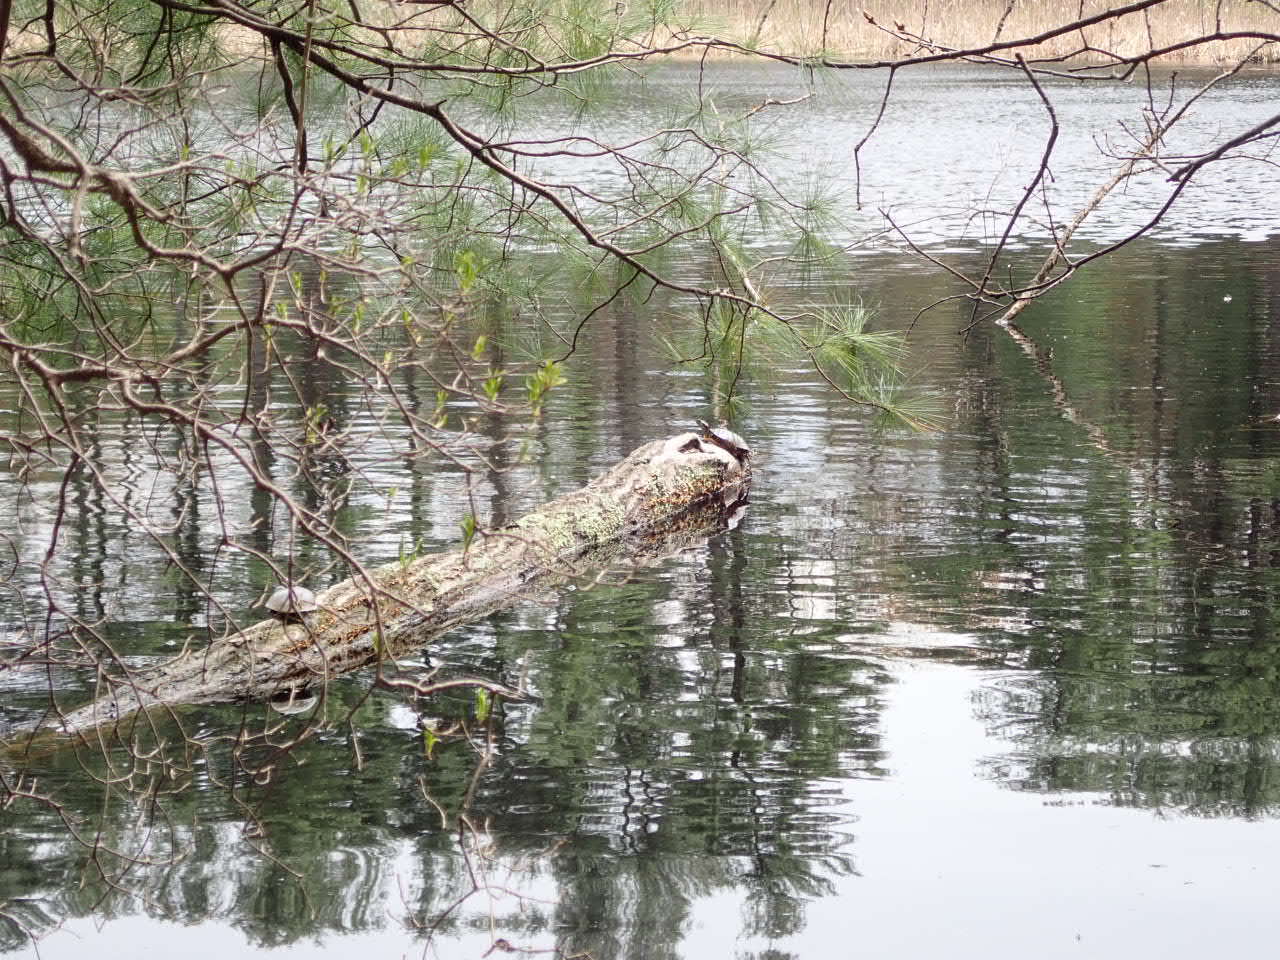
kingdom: Animalia
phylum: Chordata
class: Testudines
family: Emydidae
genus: Chrysemys
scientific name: Chrysemys picta
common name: Painted turtle
